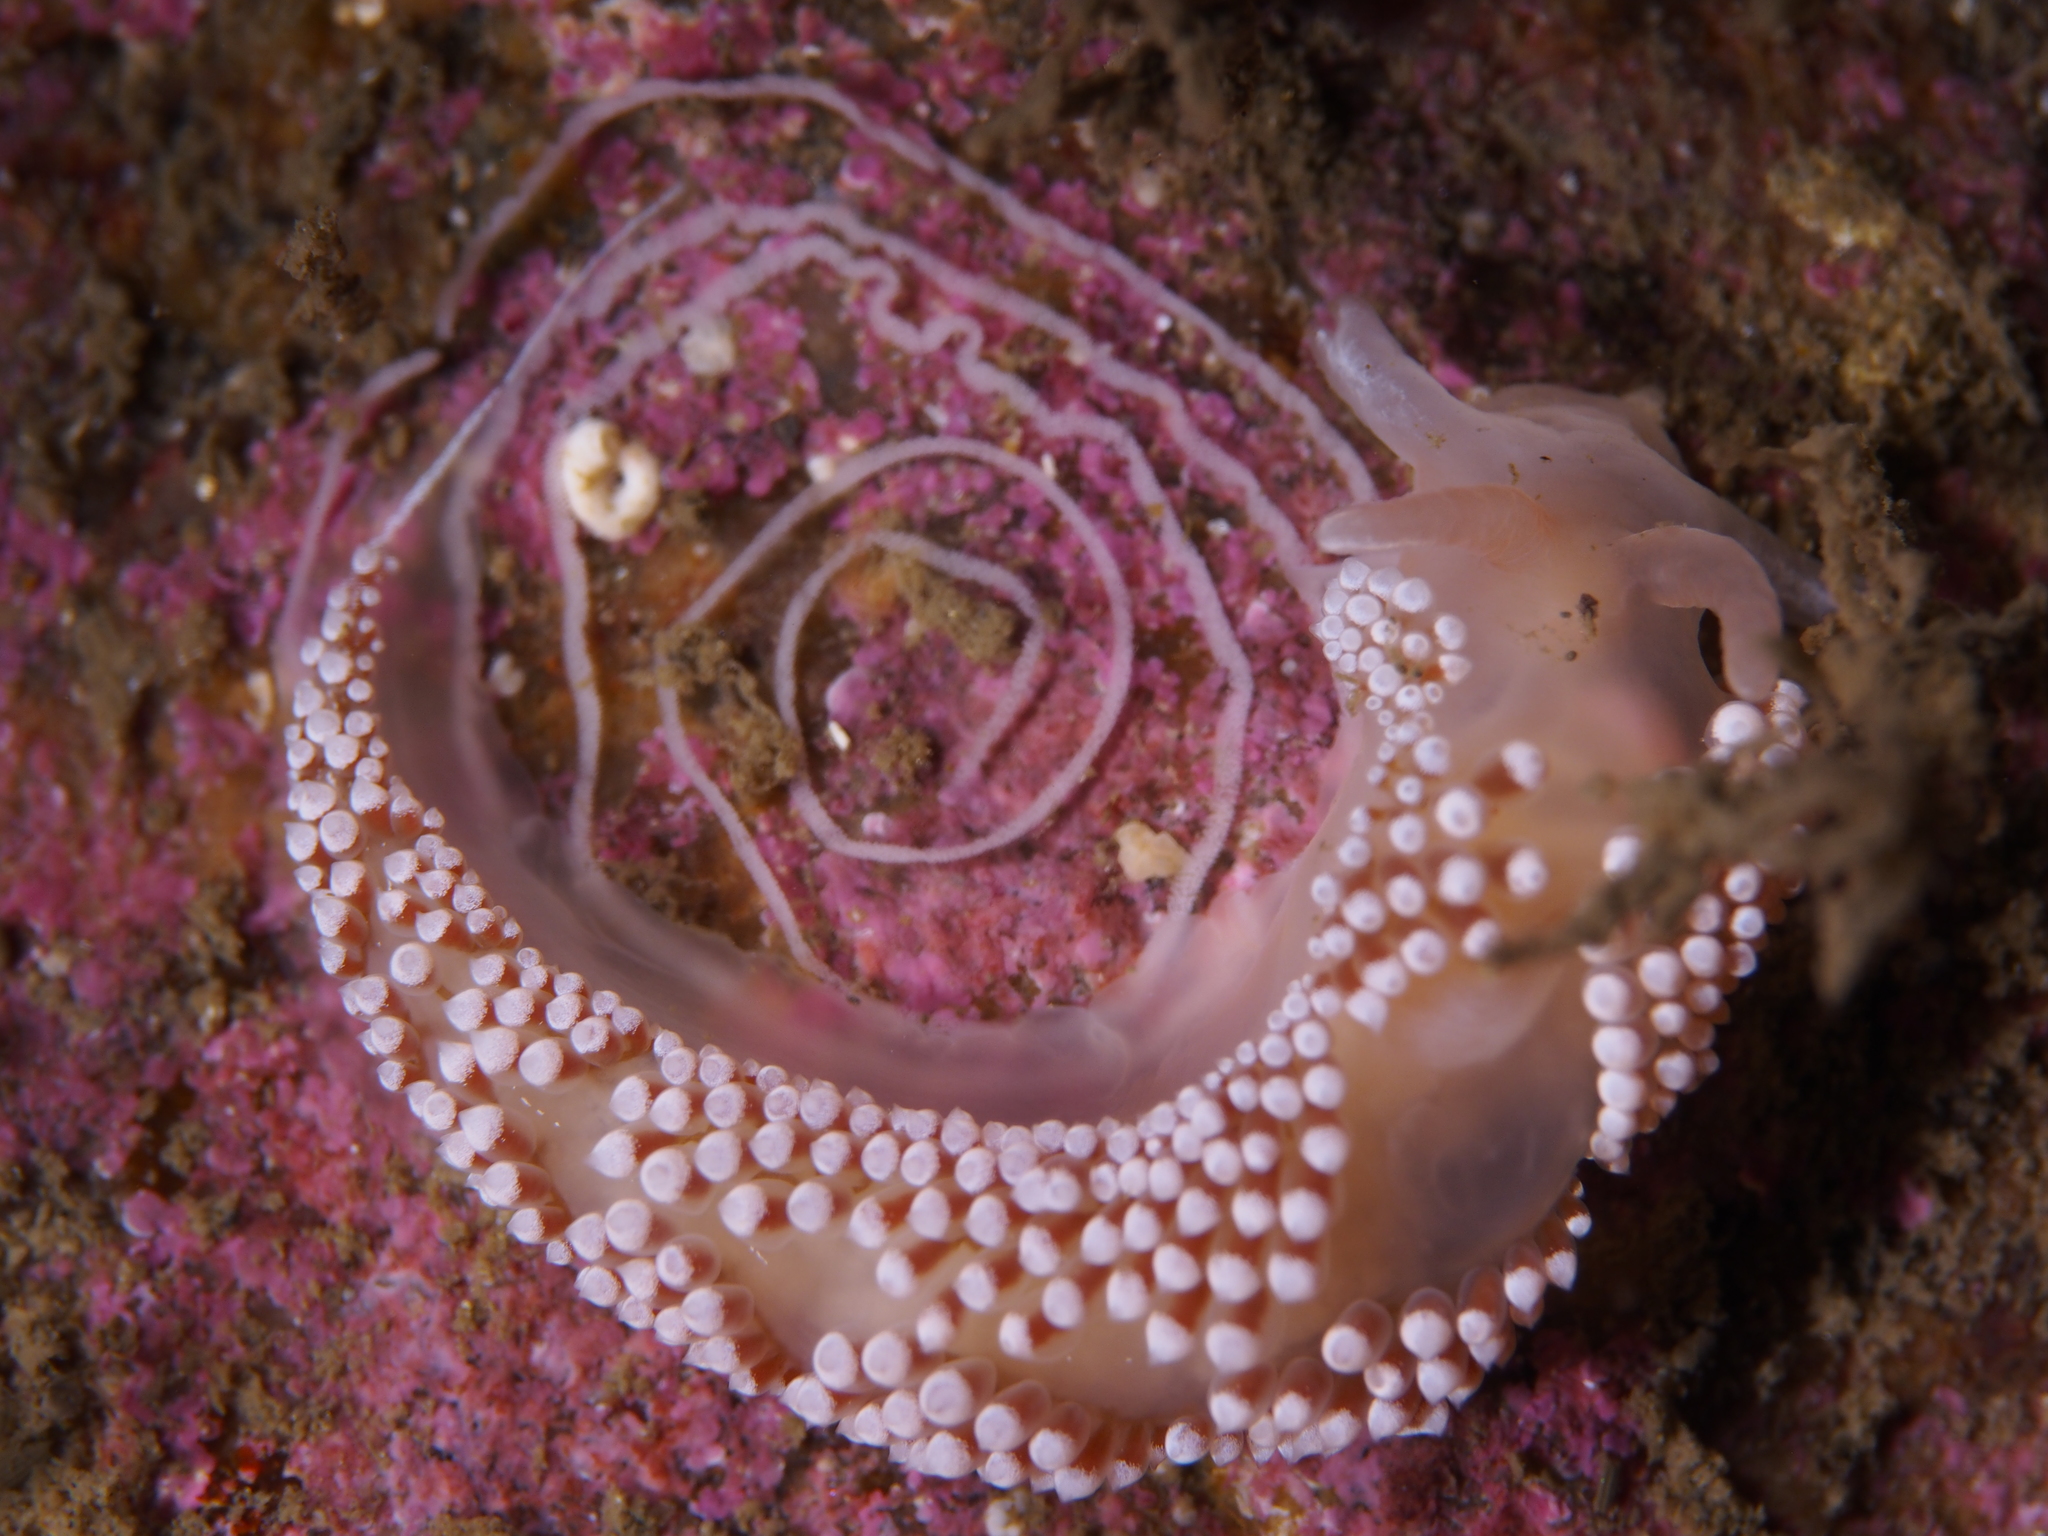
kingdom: Animalia
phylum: Mollusca
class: Gastropoda
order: Nudibranchia
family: Coryphellidae
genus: Coryphella
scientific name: Coryphella verrucosa
